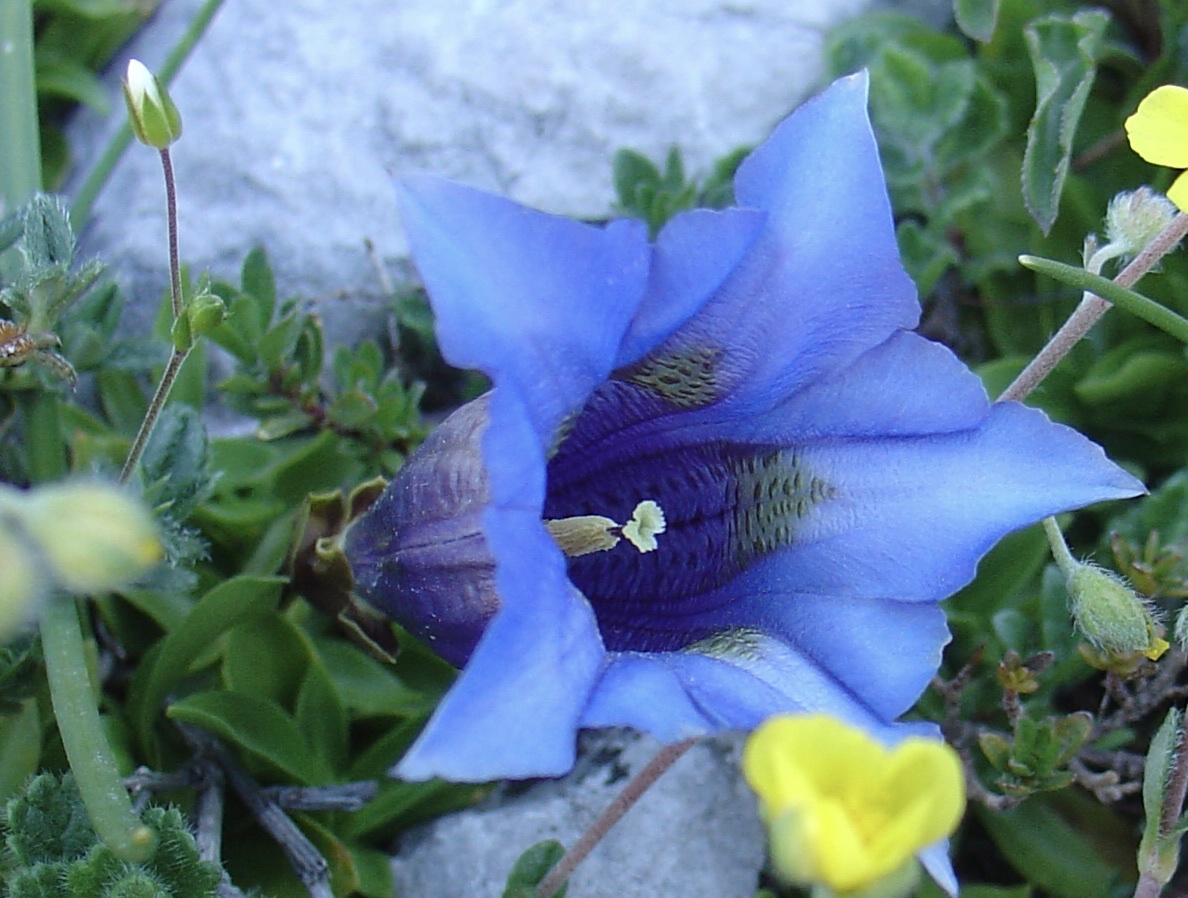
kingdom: Plantae
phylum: Tracheophyta
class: Magnoliopsida
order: Gentianales
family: Gentianaceae
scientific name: Gentianaceae
